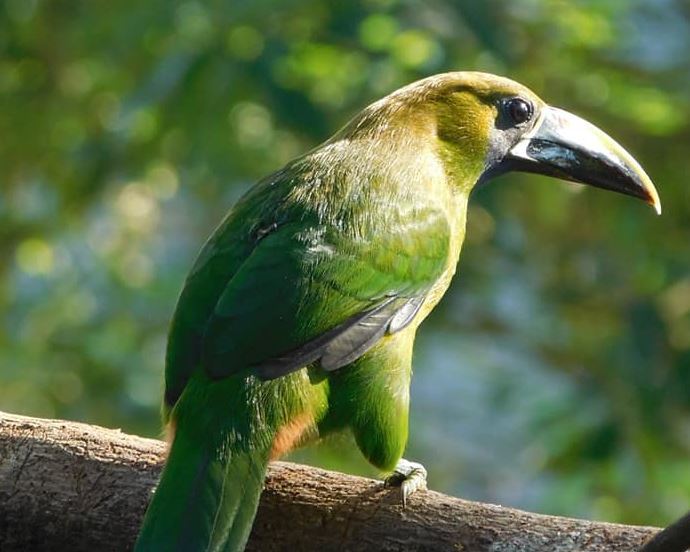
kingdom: Animalia
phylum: Chordata
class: Aves
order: Piciformes
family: Ramphastidae
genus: Aulacorhynchus
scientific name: Aulacorhynchus prasinus
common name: Emerald toucanet
